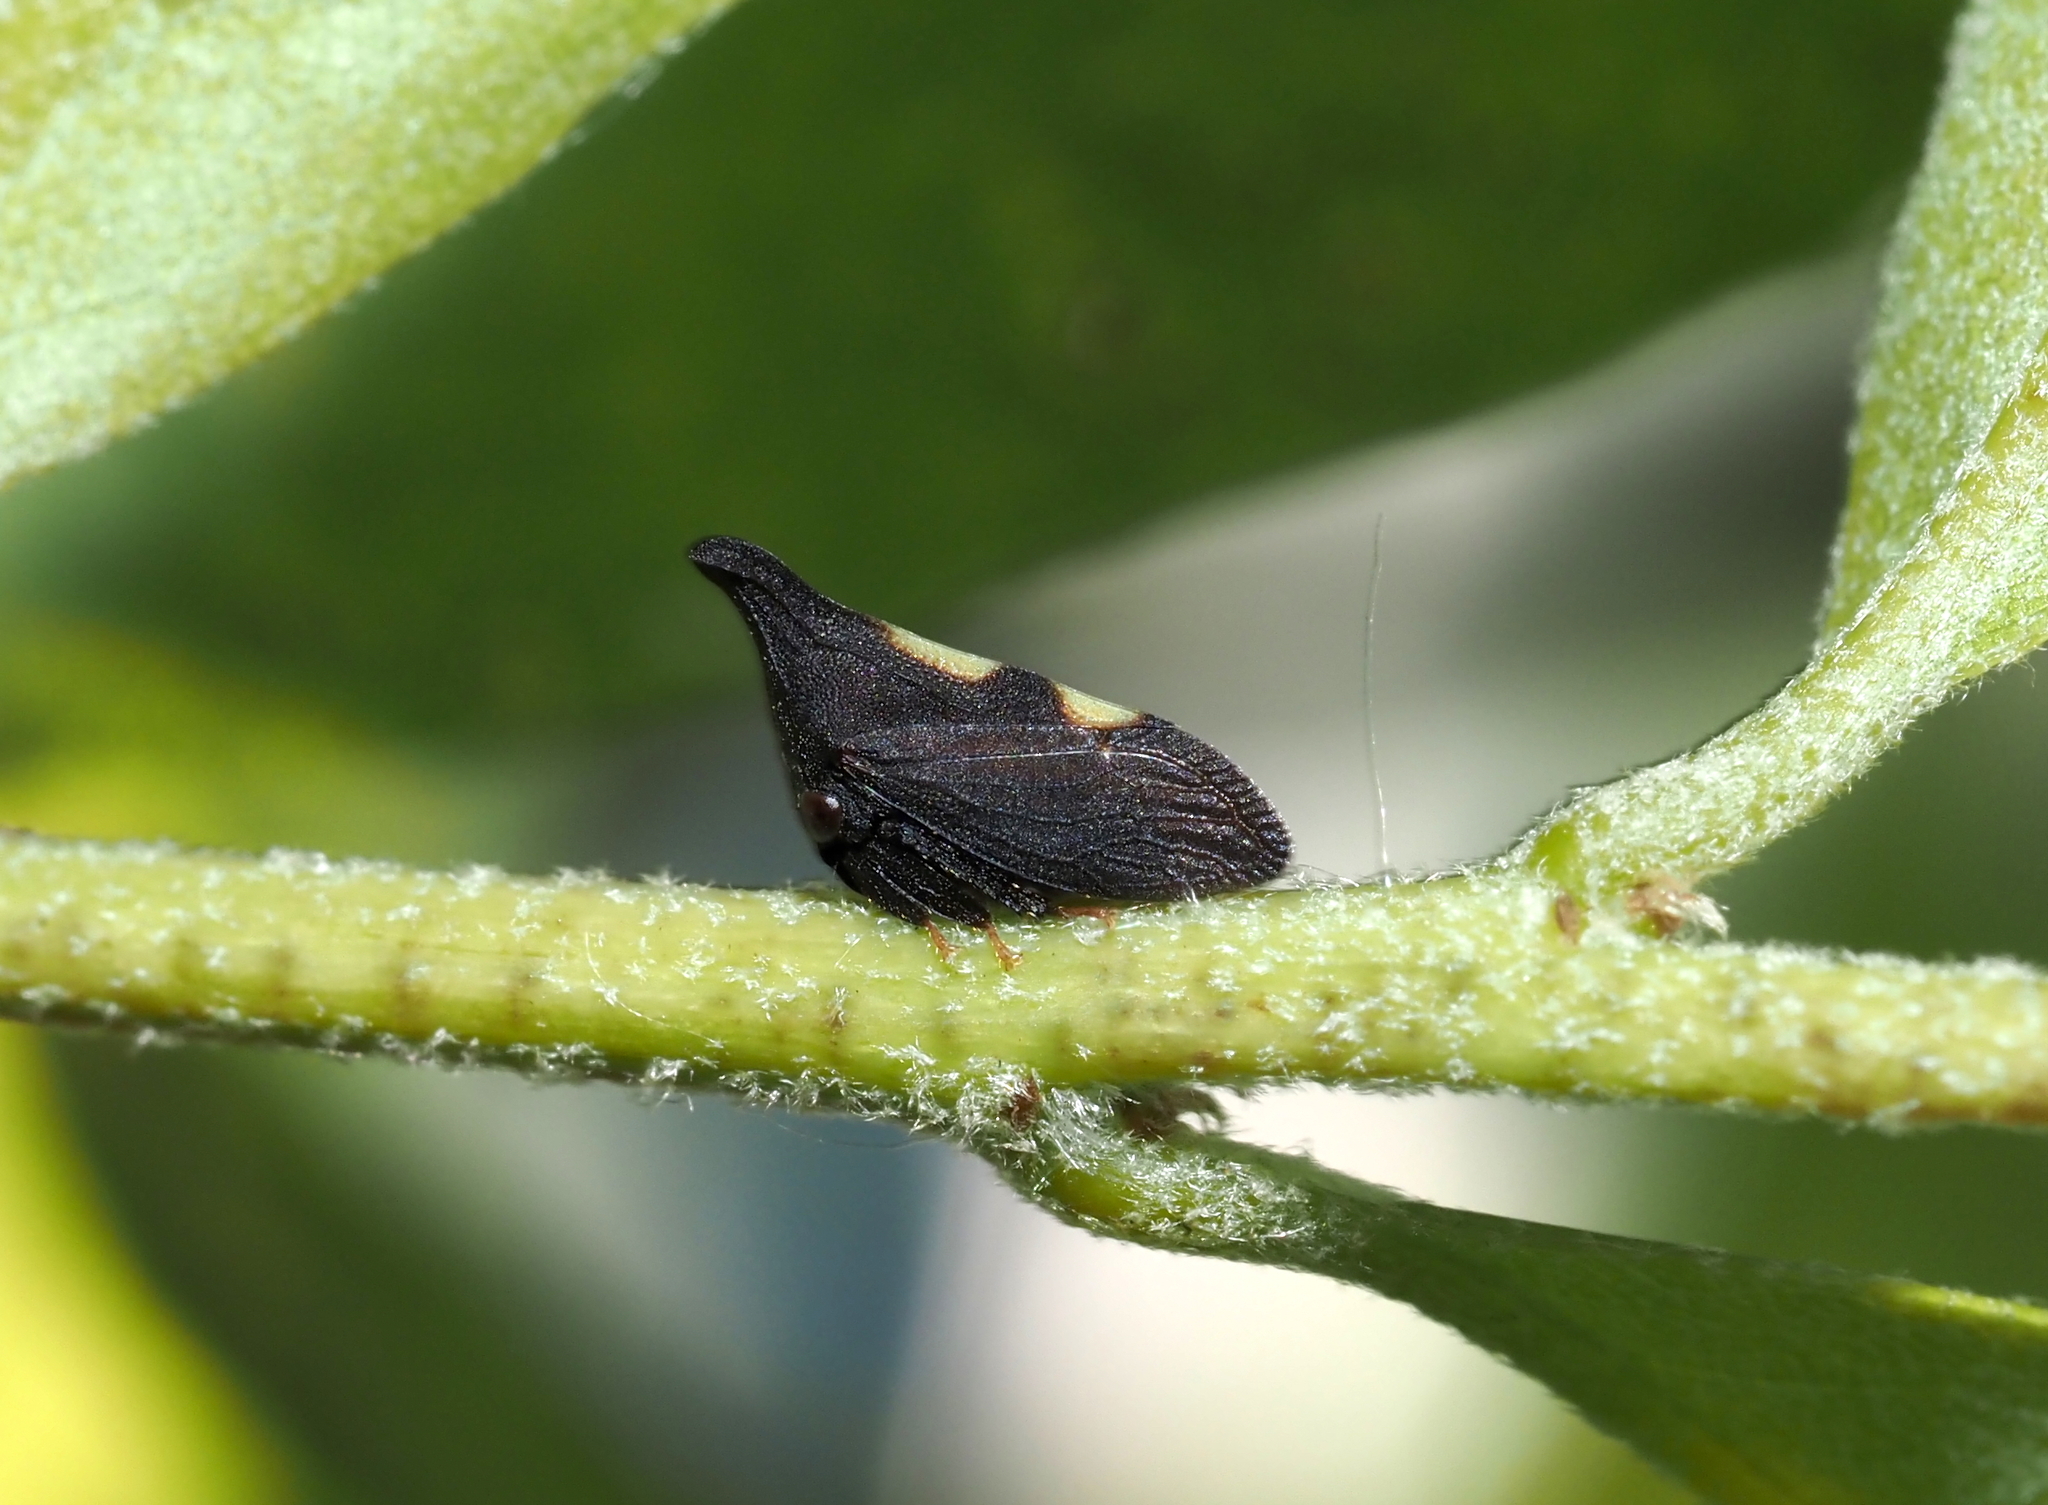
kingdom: Animalia
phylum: Arthropoda
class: Insecta
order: Hemiptera
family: Membracidae
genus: Enchenopa
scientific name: Enchenopa
